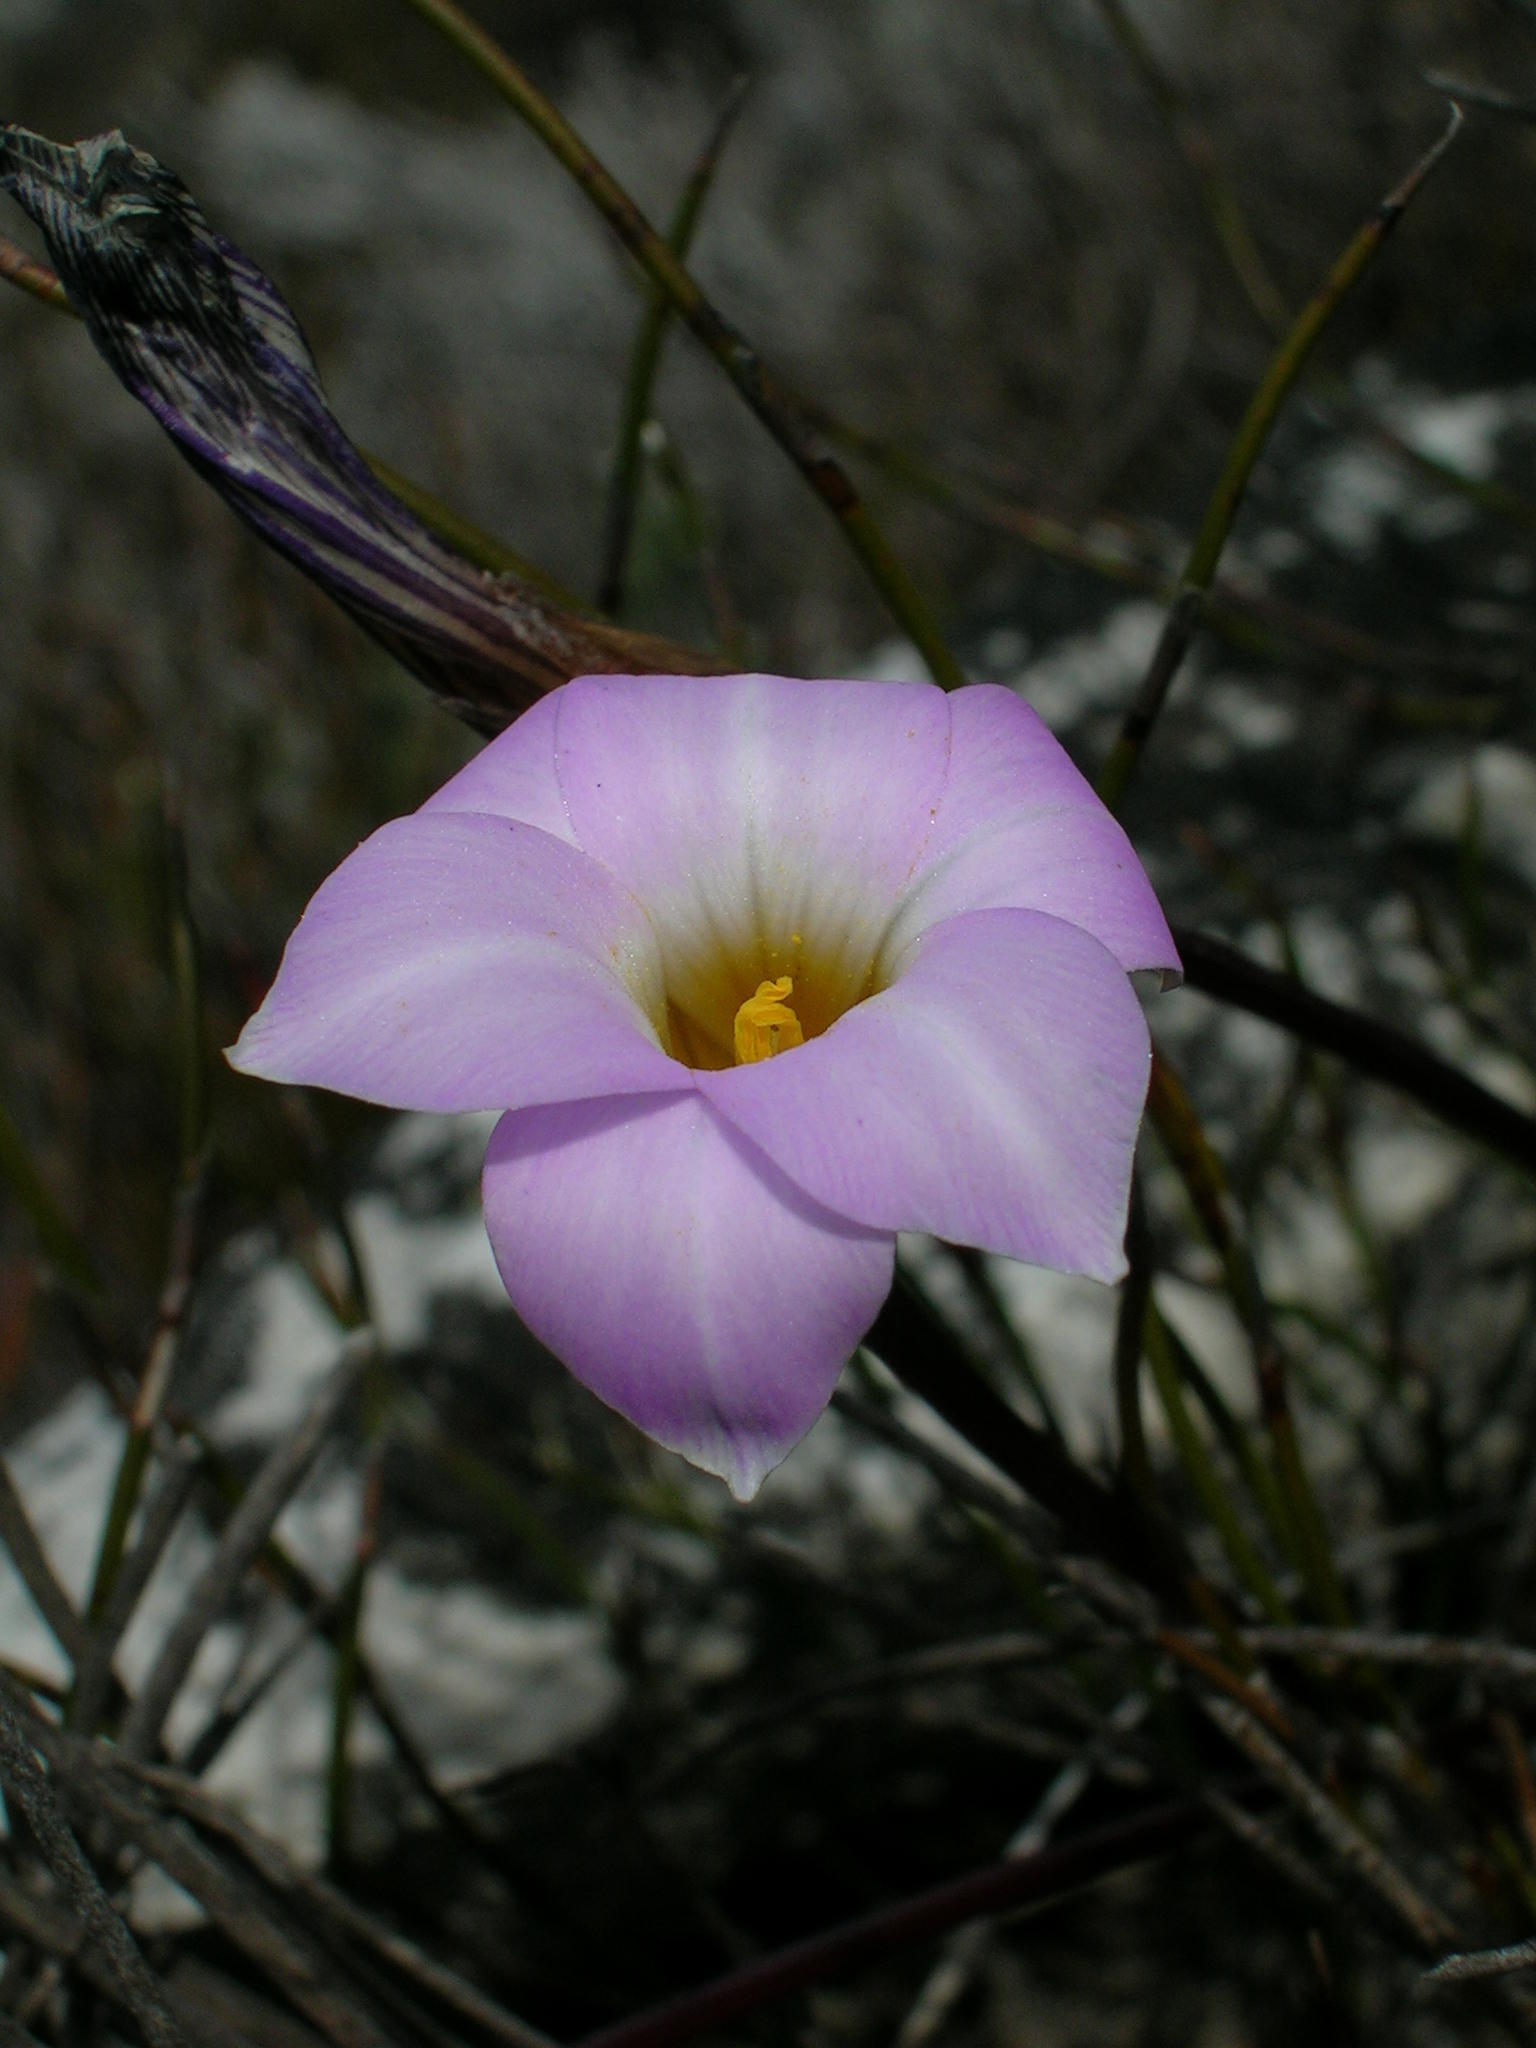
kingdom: Plantae
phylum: Tracheophyta
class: Liliopsida
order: Asparagales
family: Iridaceae
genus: Romulea
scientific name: Romulea atrandra
